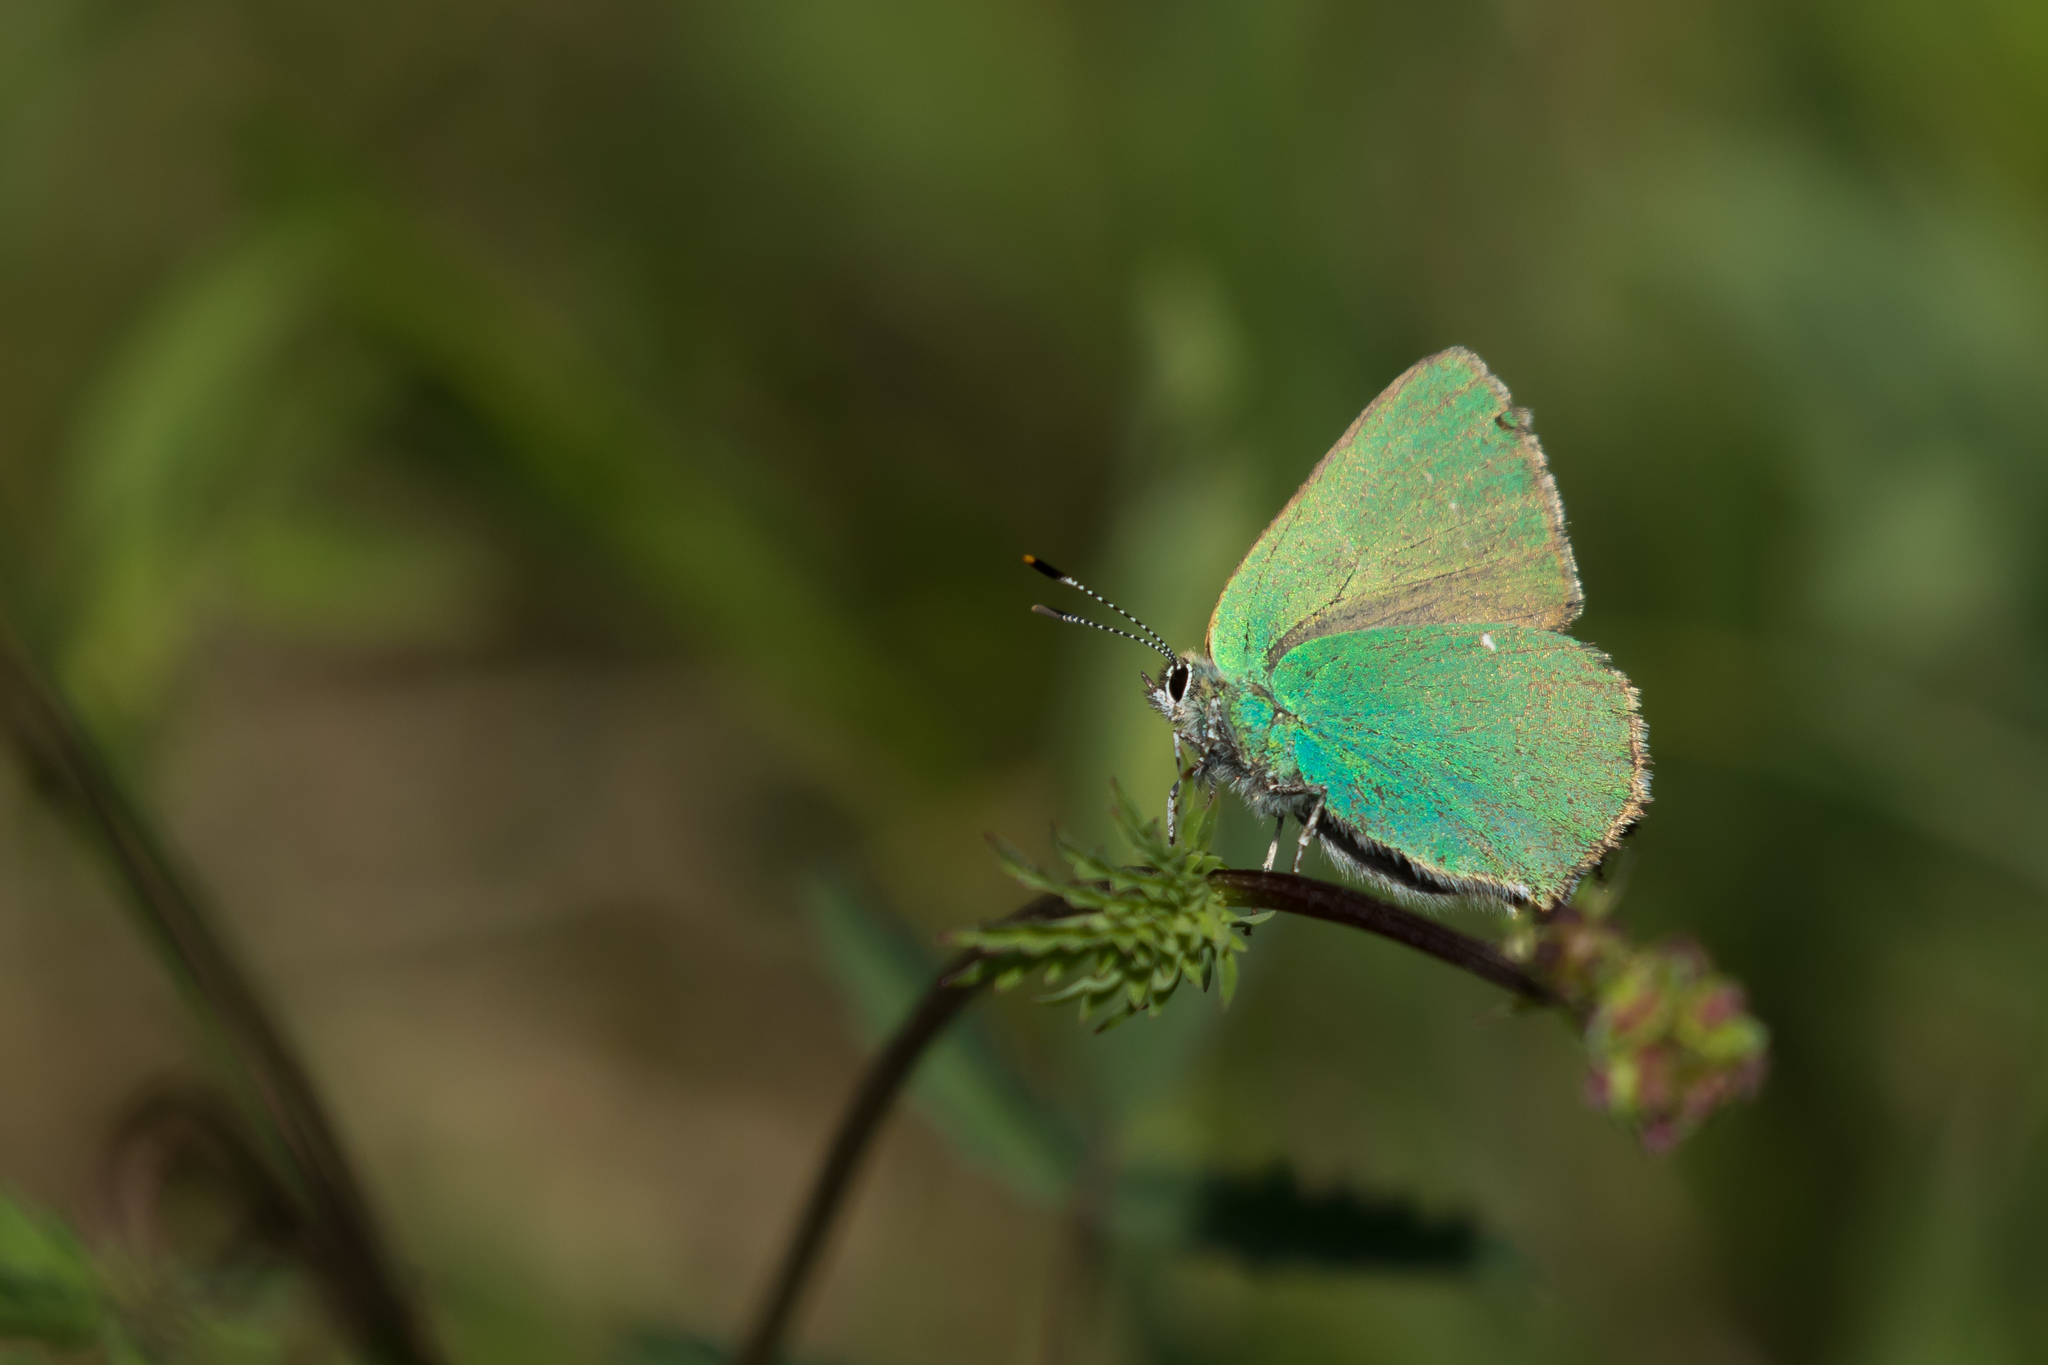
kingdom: Animalia
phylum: Arthropoda
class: Insecta
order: Lepidoptera
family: Lycaenidae
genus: Callophrys
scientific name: Callophrys rubi
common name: Green hairstreak
